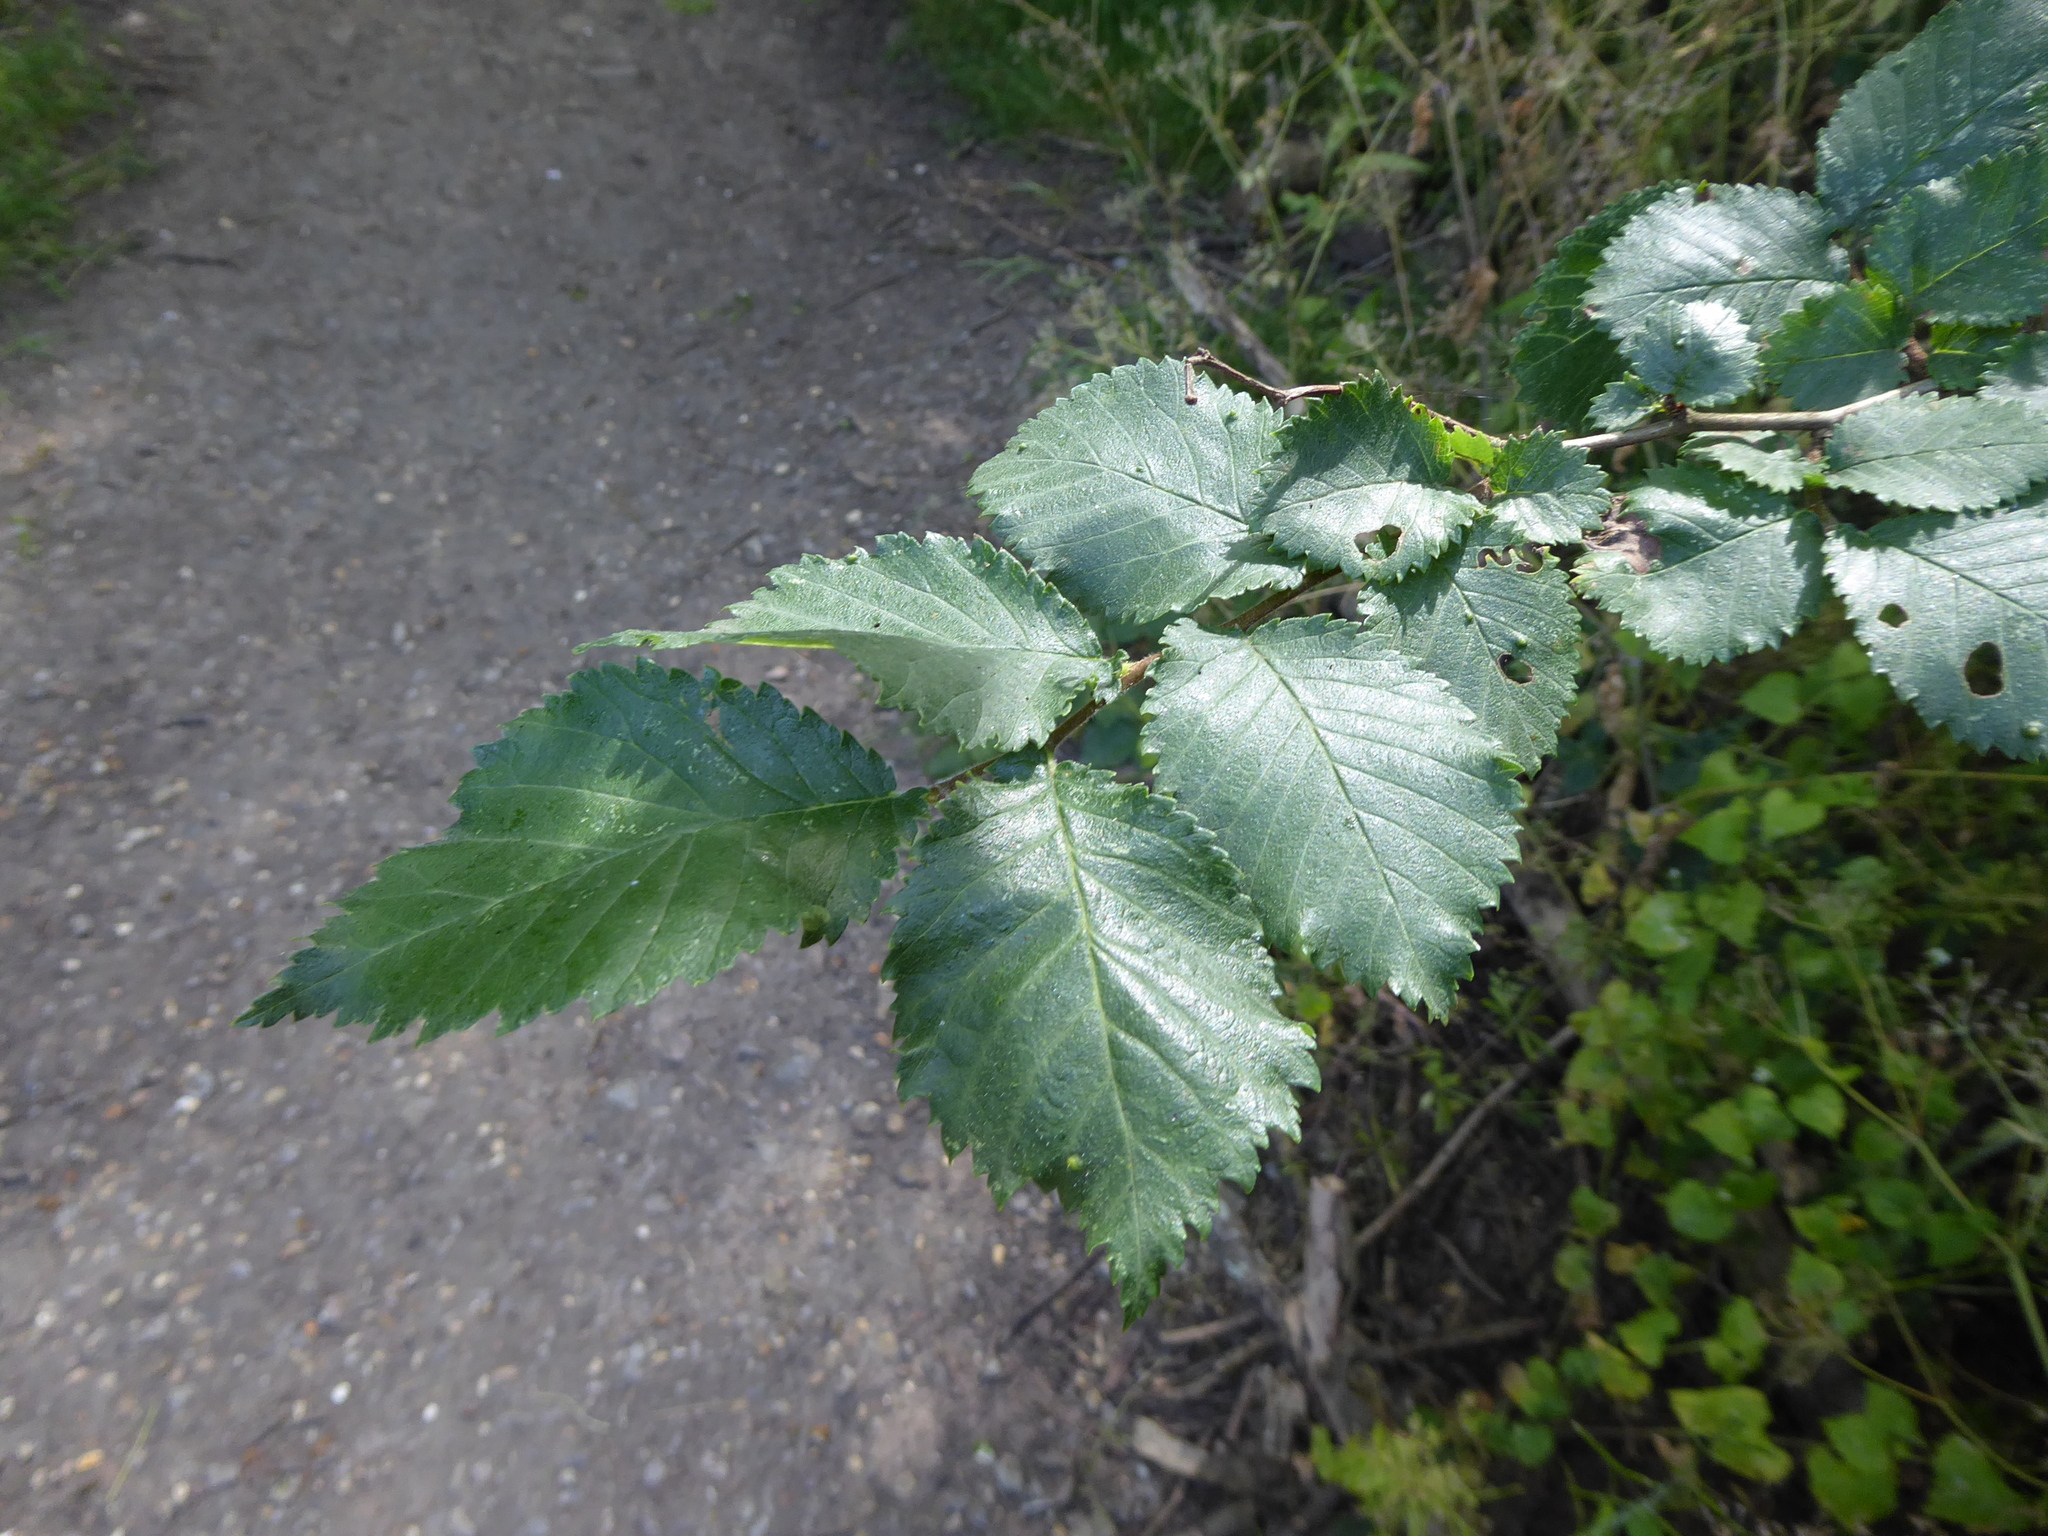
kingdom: Plantae
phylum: Tracheophyta
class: Magnoliopsida
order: Rosales
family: Ulmaceae
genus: Ulmus
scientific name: Ulmus
